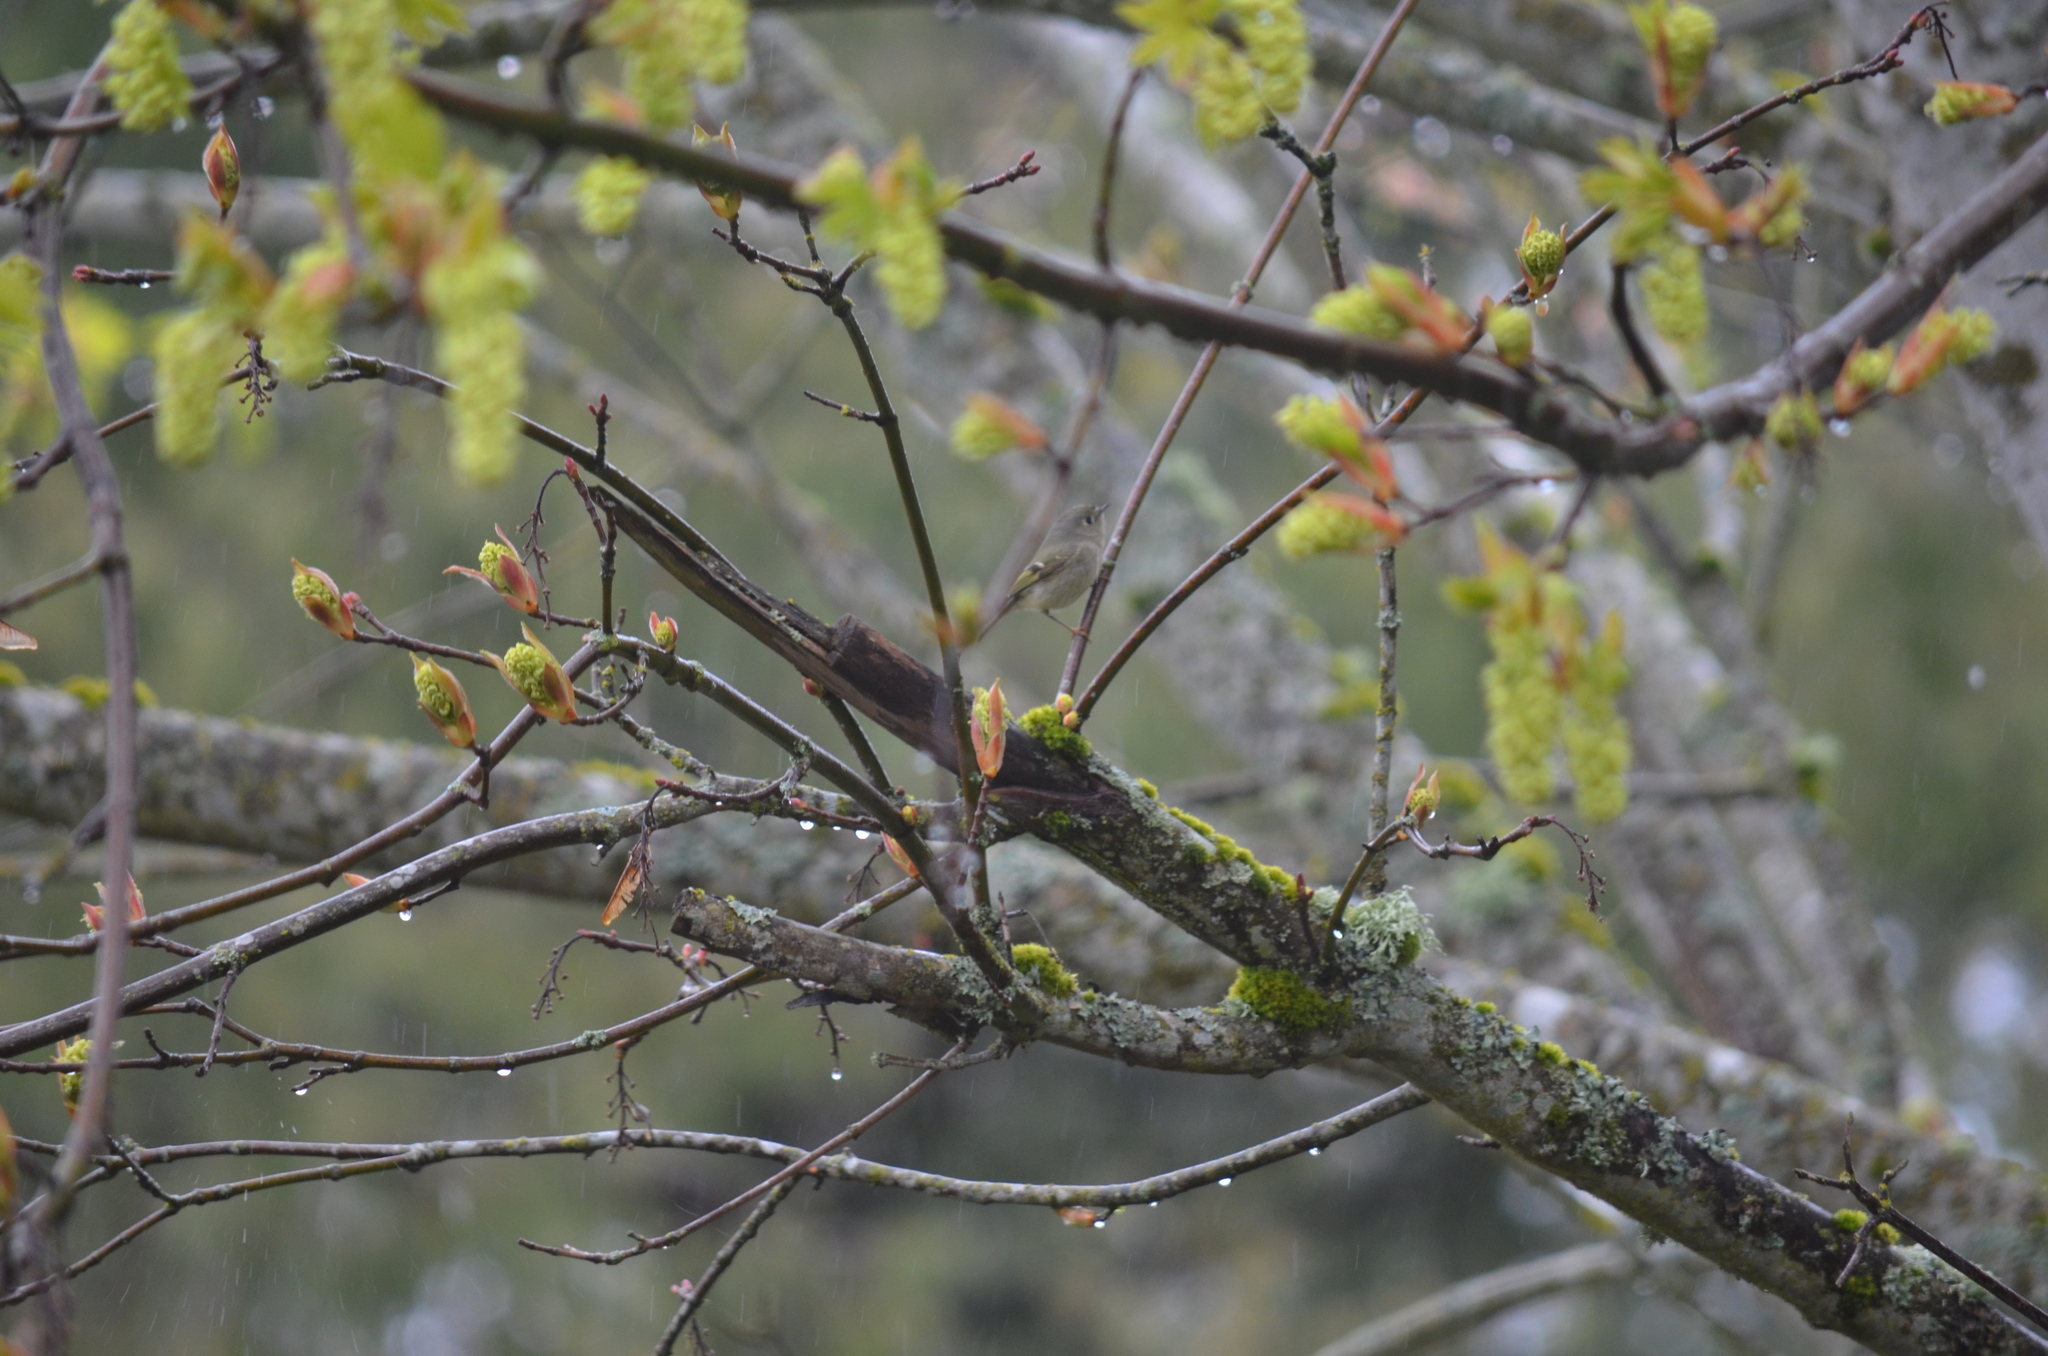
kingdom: Animalia
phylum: Chordata
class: Aves
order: Passeriformes
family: Regulidae
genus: Regulus
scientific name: Regulus calendula
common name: Ruby-crowned kinglet
